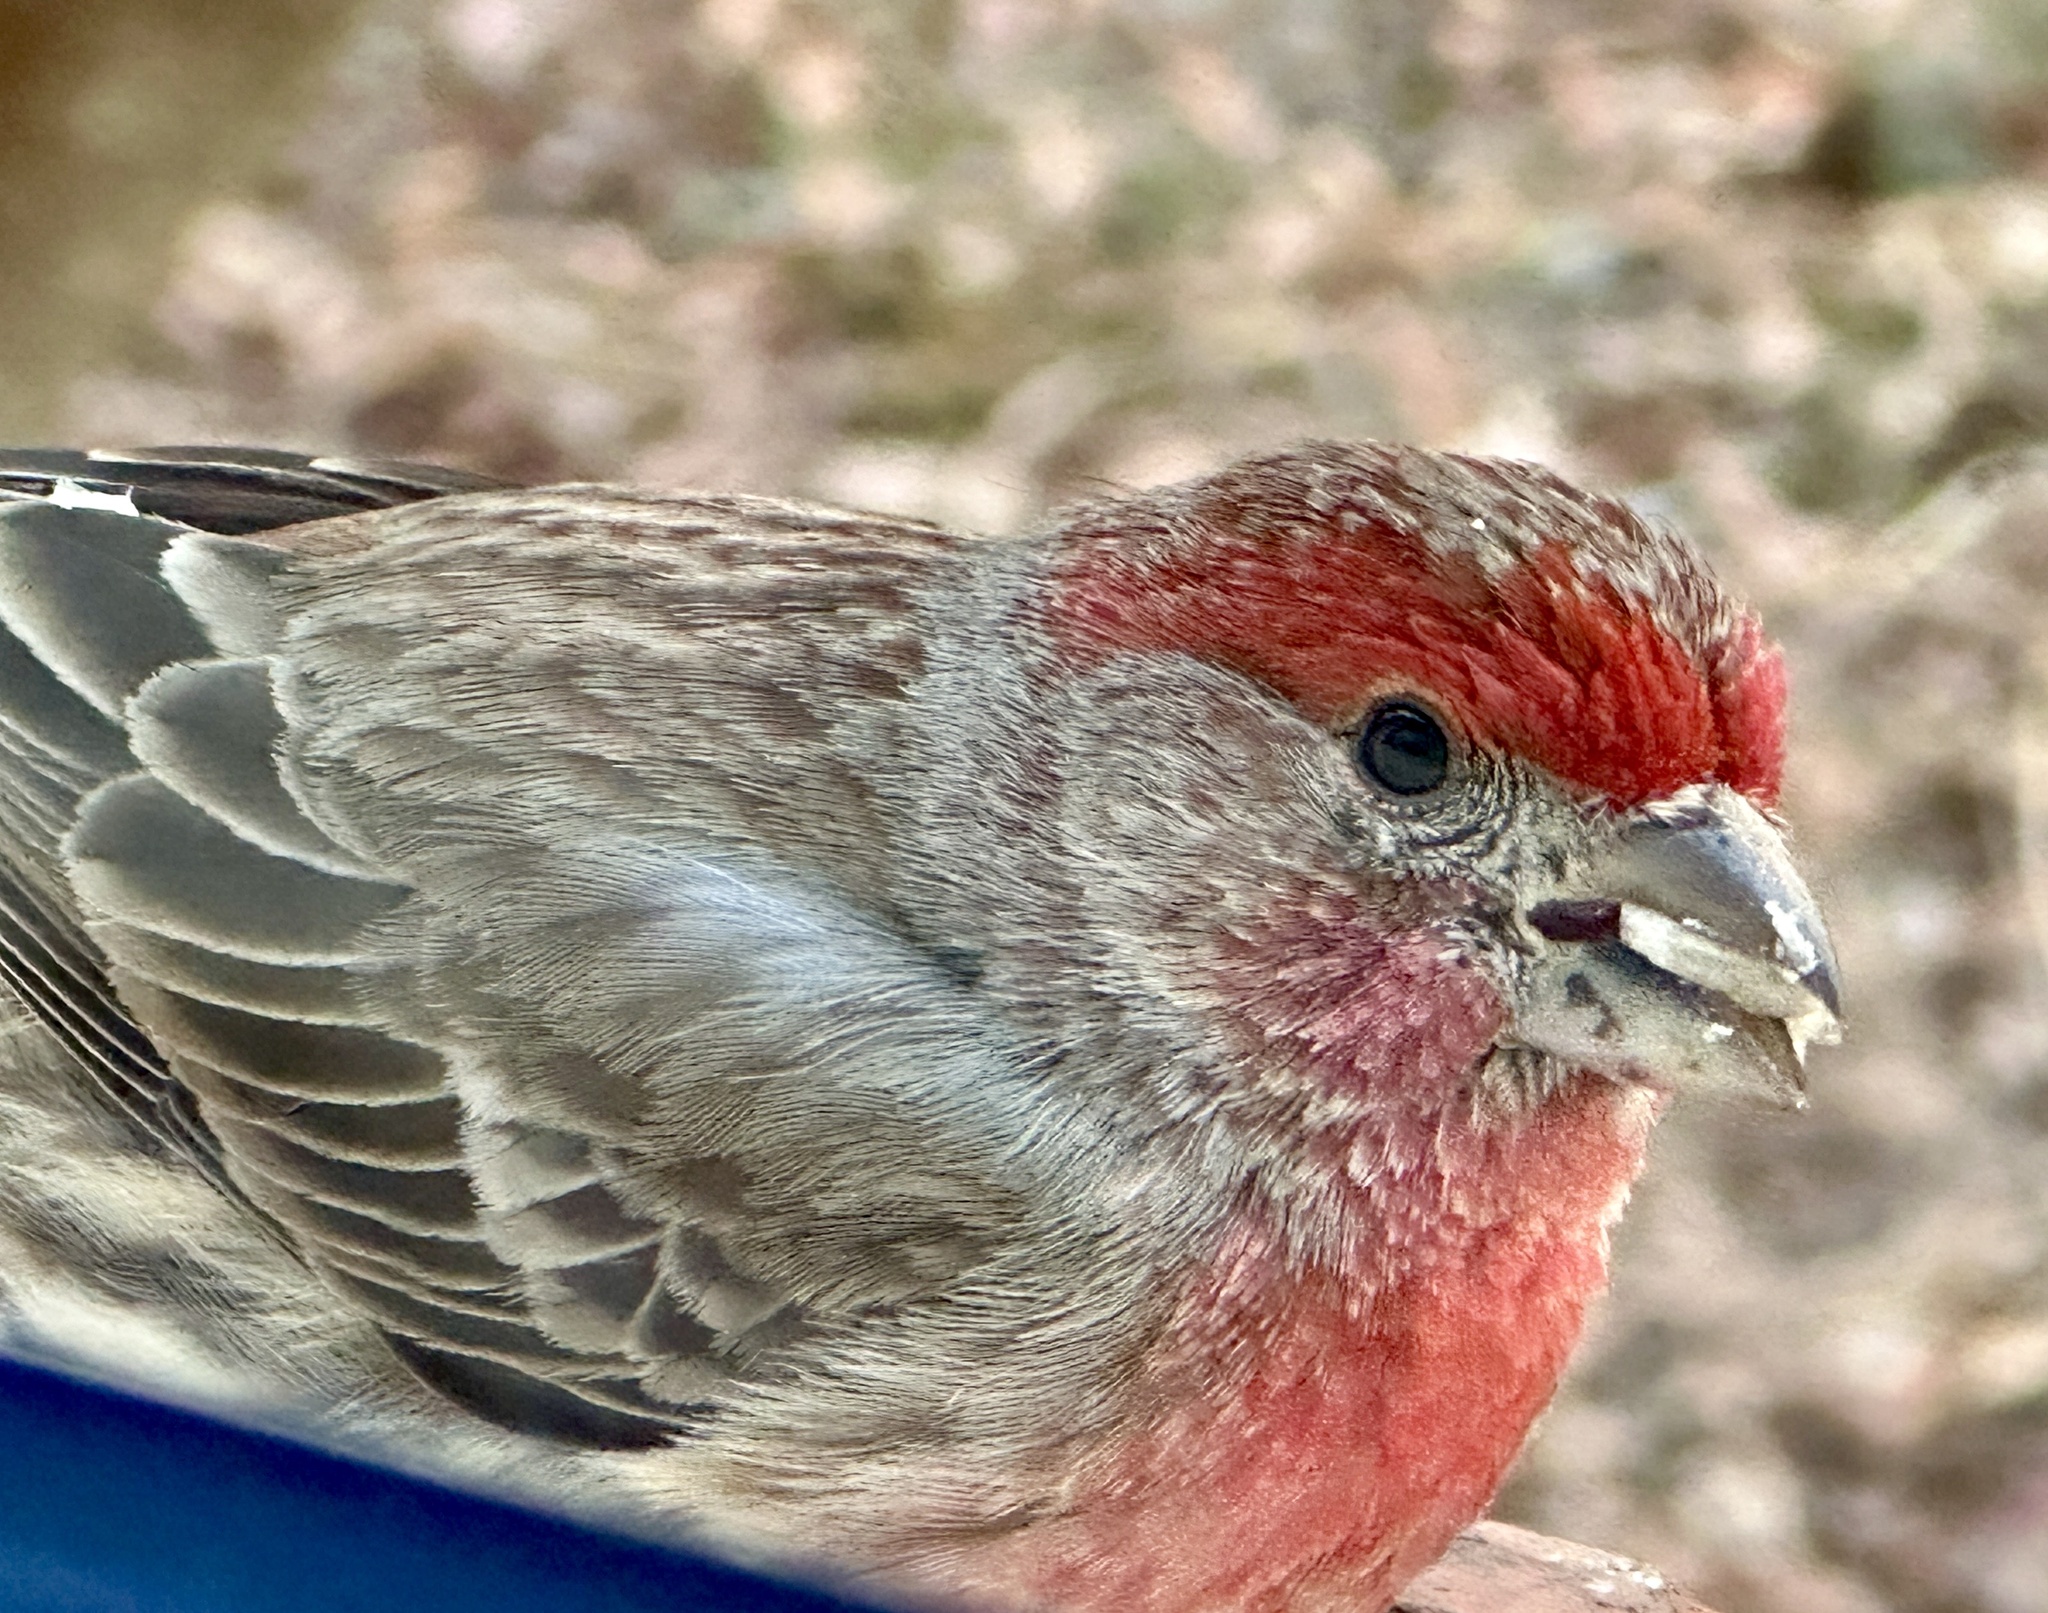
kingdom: Animalia
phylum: Chordata
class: Aves
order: Passeriformes
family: Fringillidae
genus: Haemorhous
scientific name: Haemorhous mexicanus
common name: House finch
